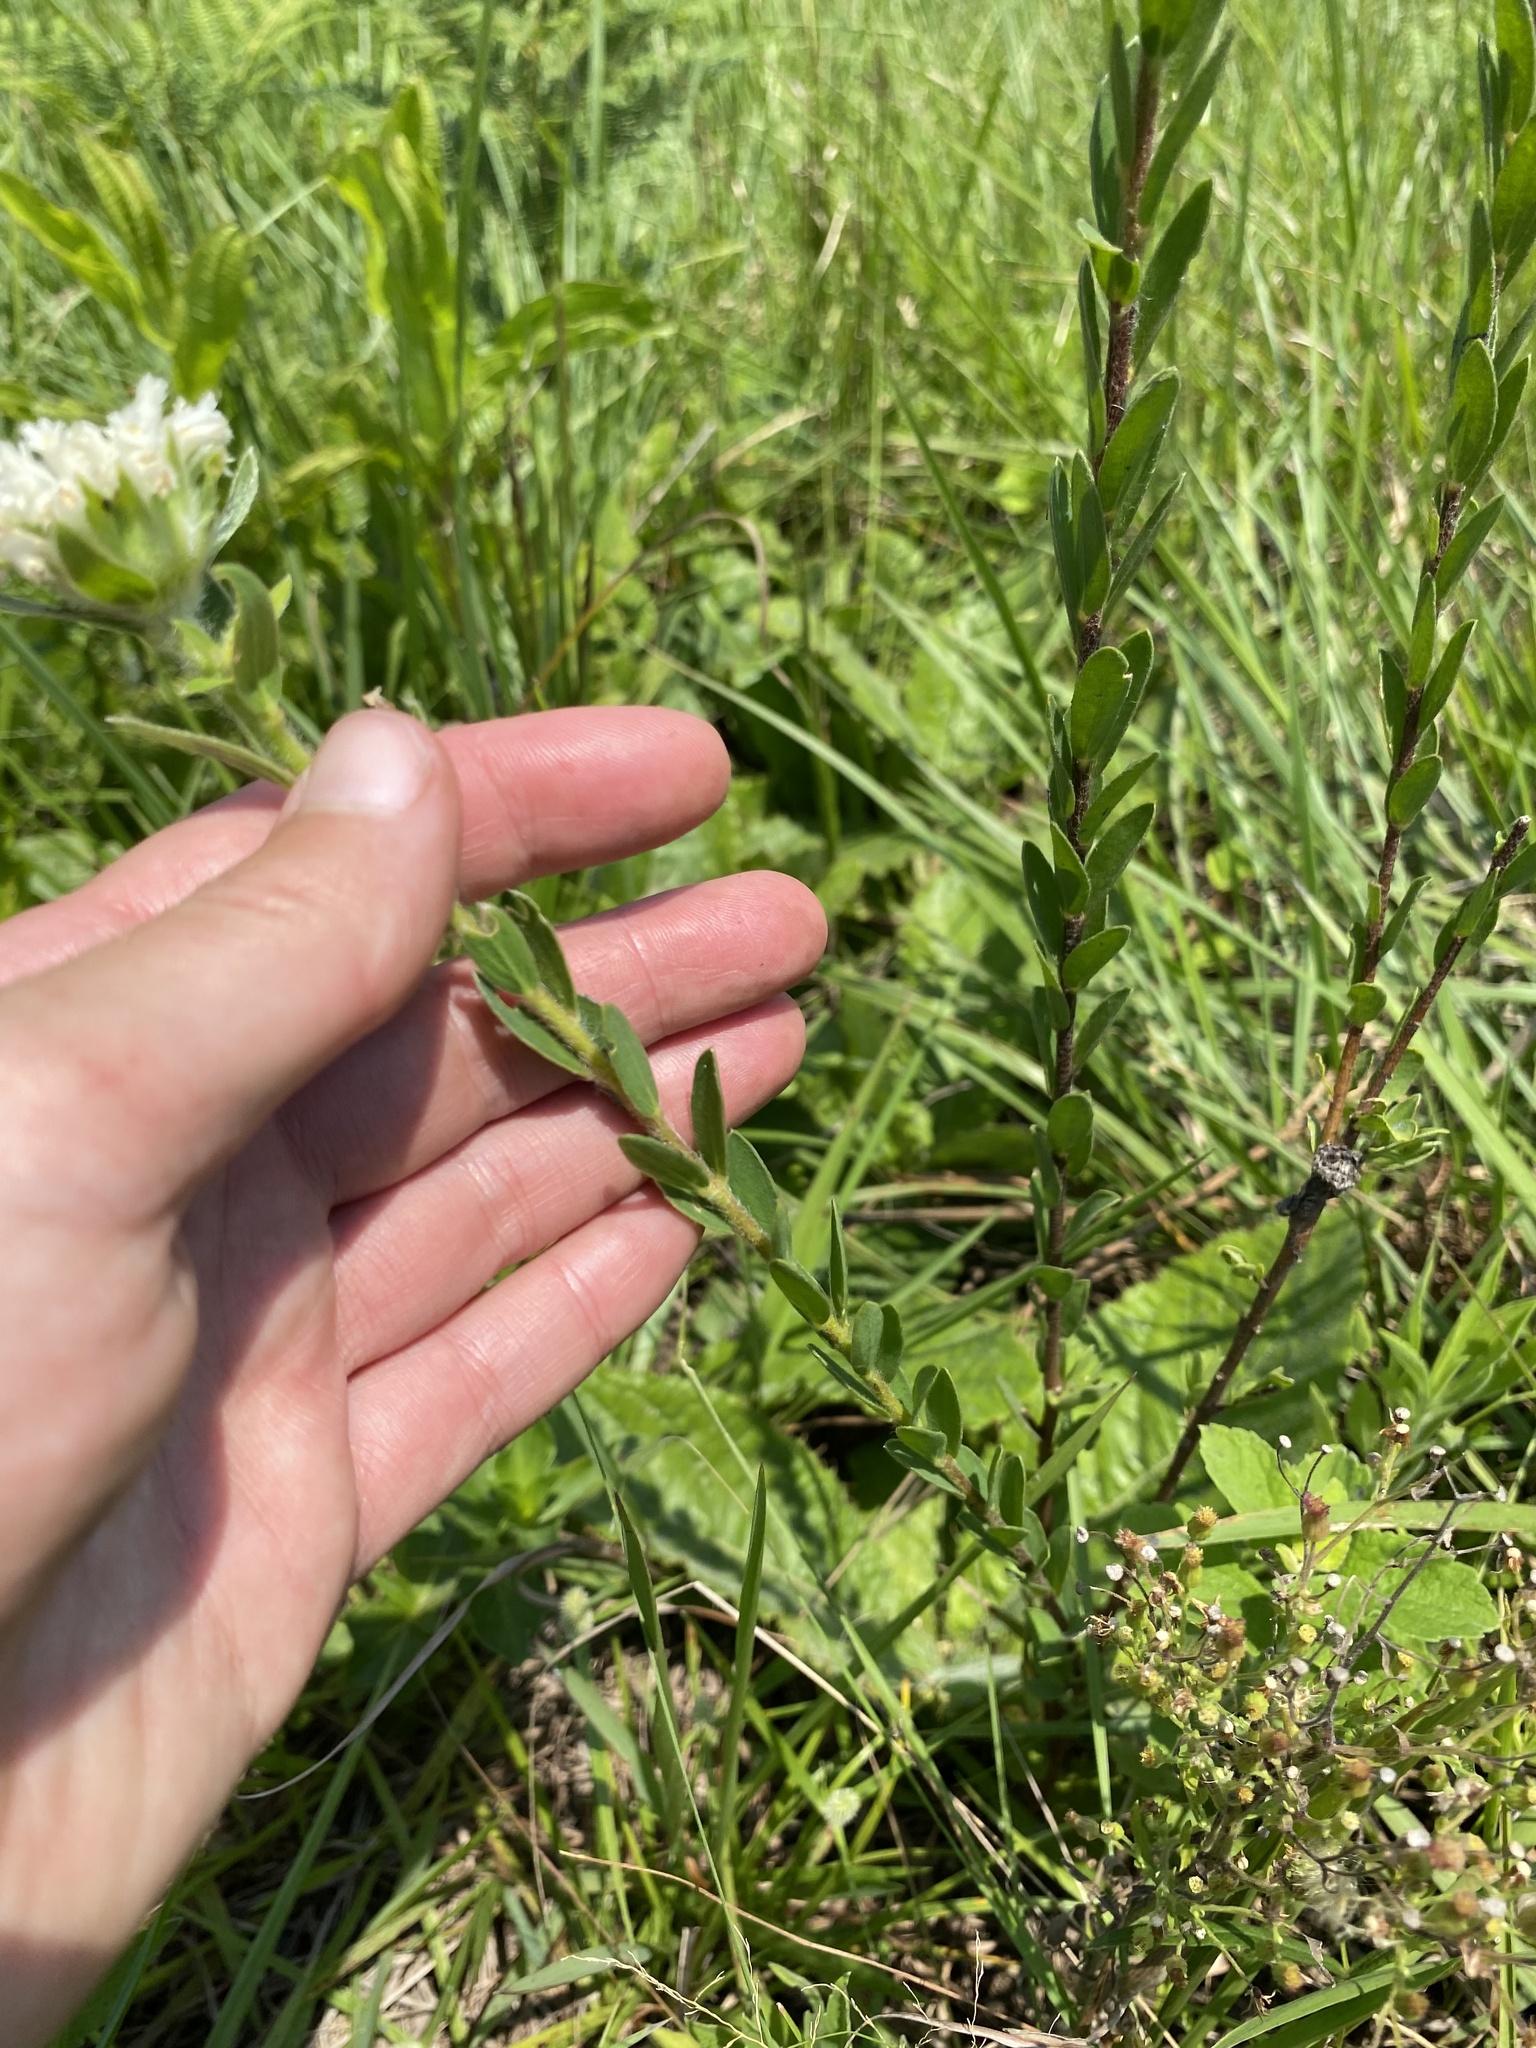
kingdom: Plantae
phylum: Tracheophyta
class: Magnoliopsida
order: Malvales
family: Thymelaeaceae
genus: Gnidia
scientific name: Gnidia calocephala
